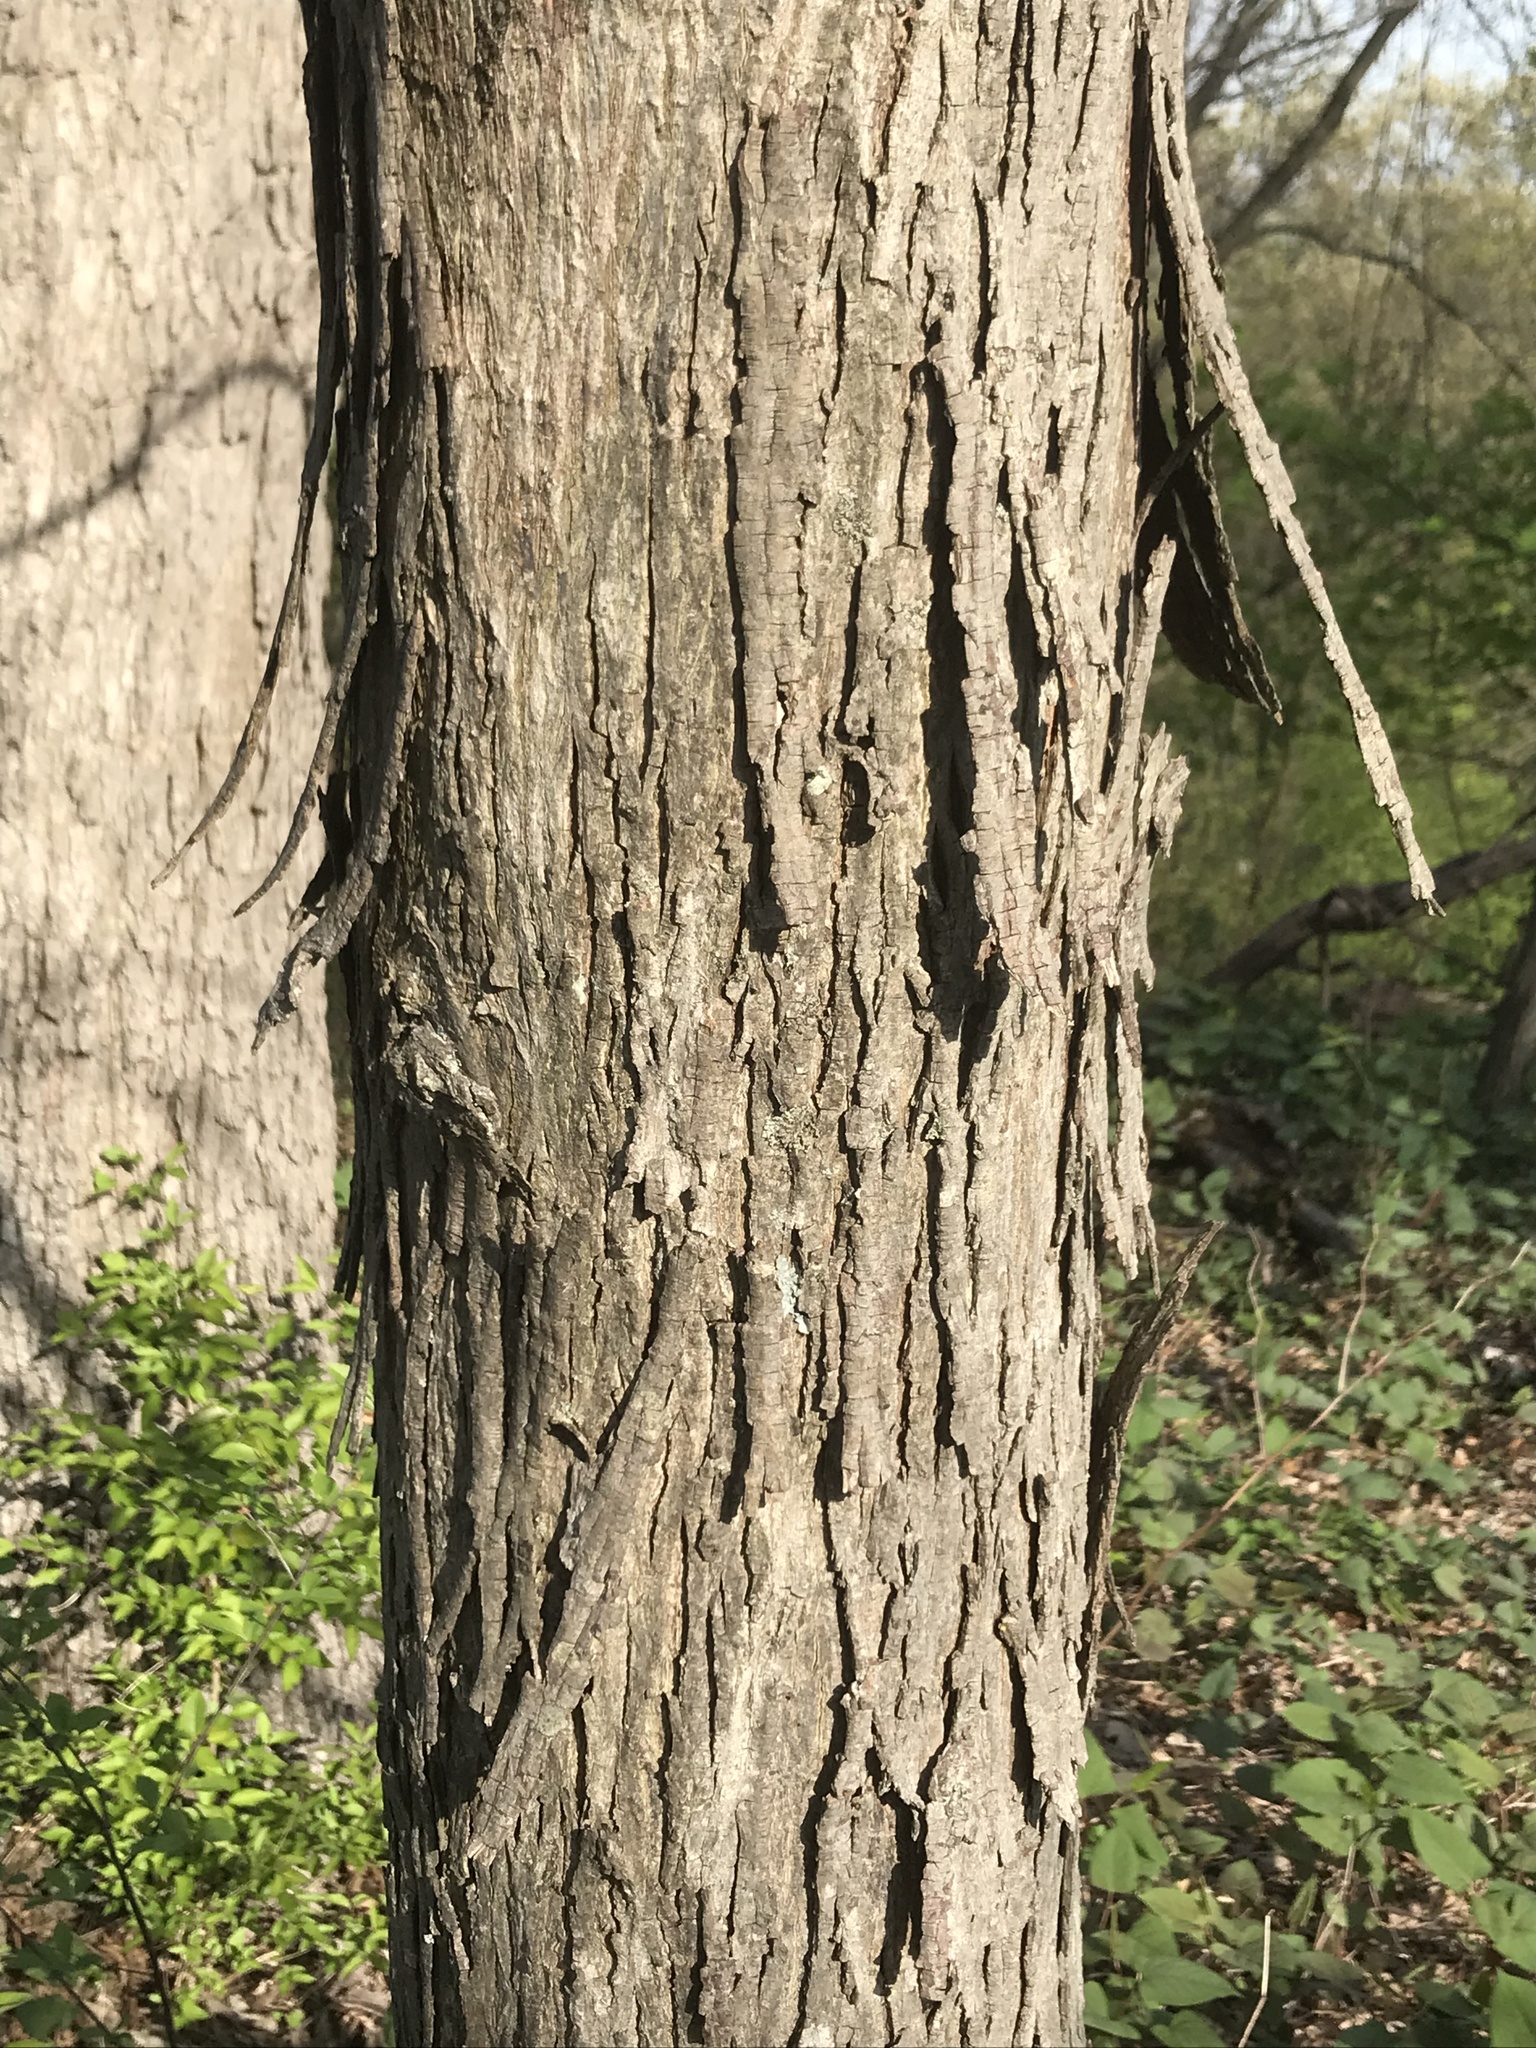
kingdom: Plantae
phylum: Tracheophyta
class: Magnoliopsida
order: Fagales
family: Juglandaceae
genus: Carya
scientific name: Carya ovata
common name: Shagbark hickory
